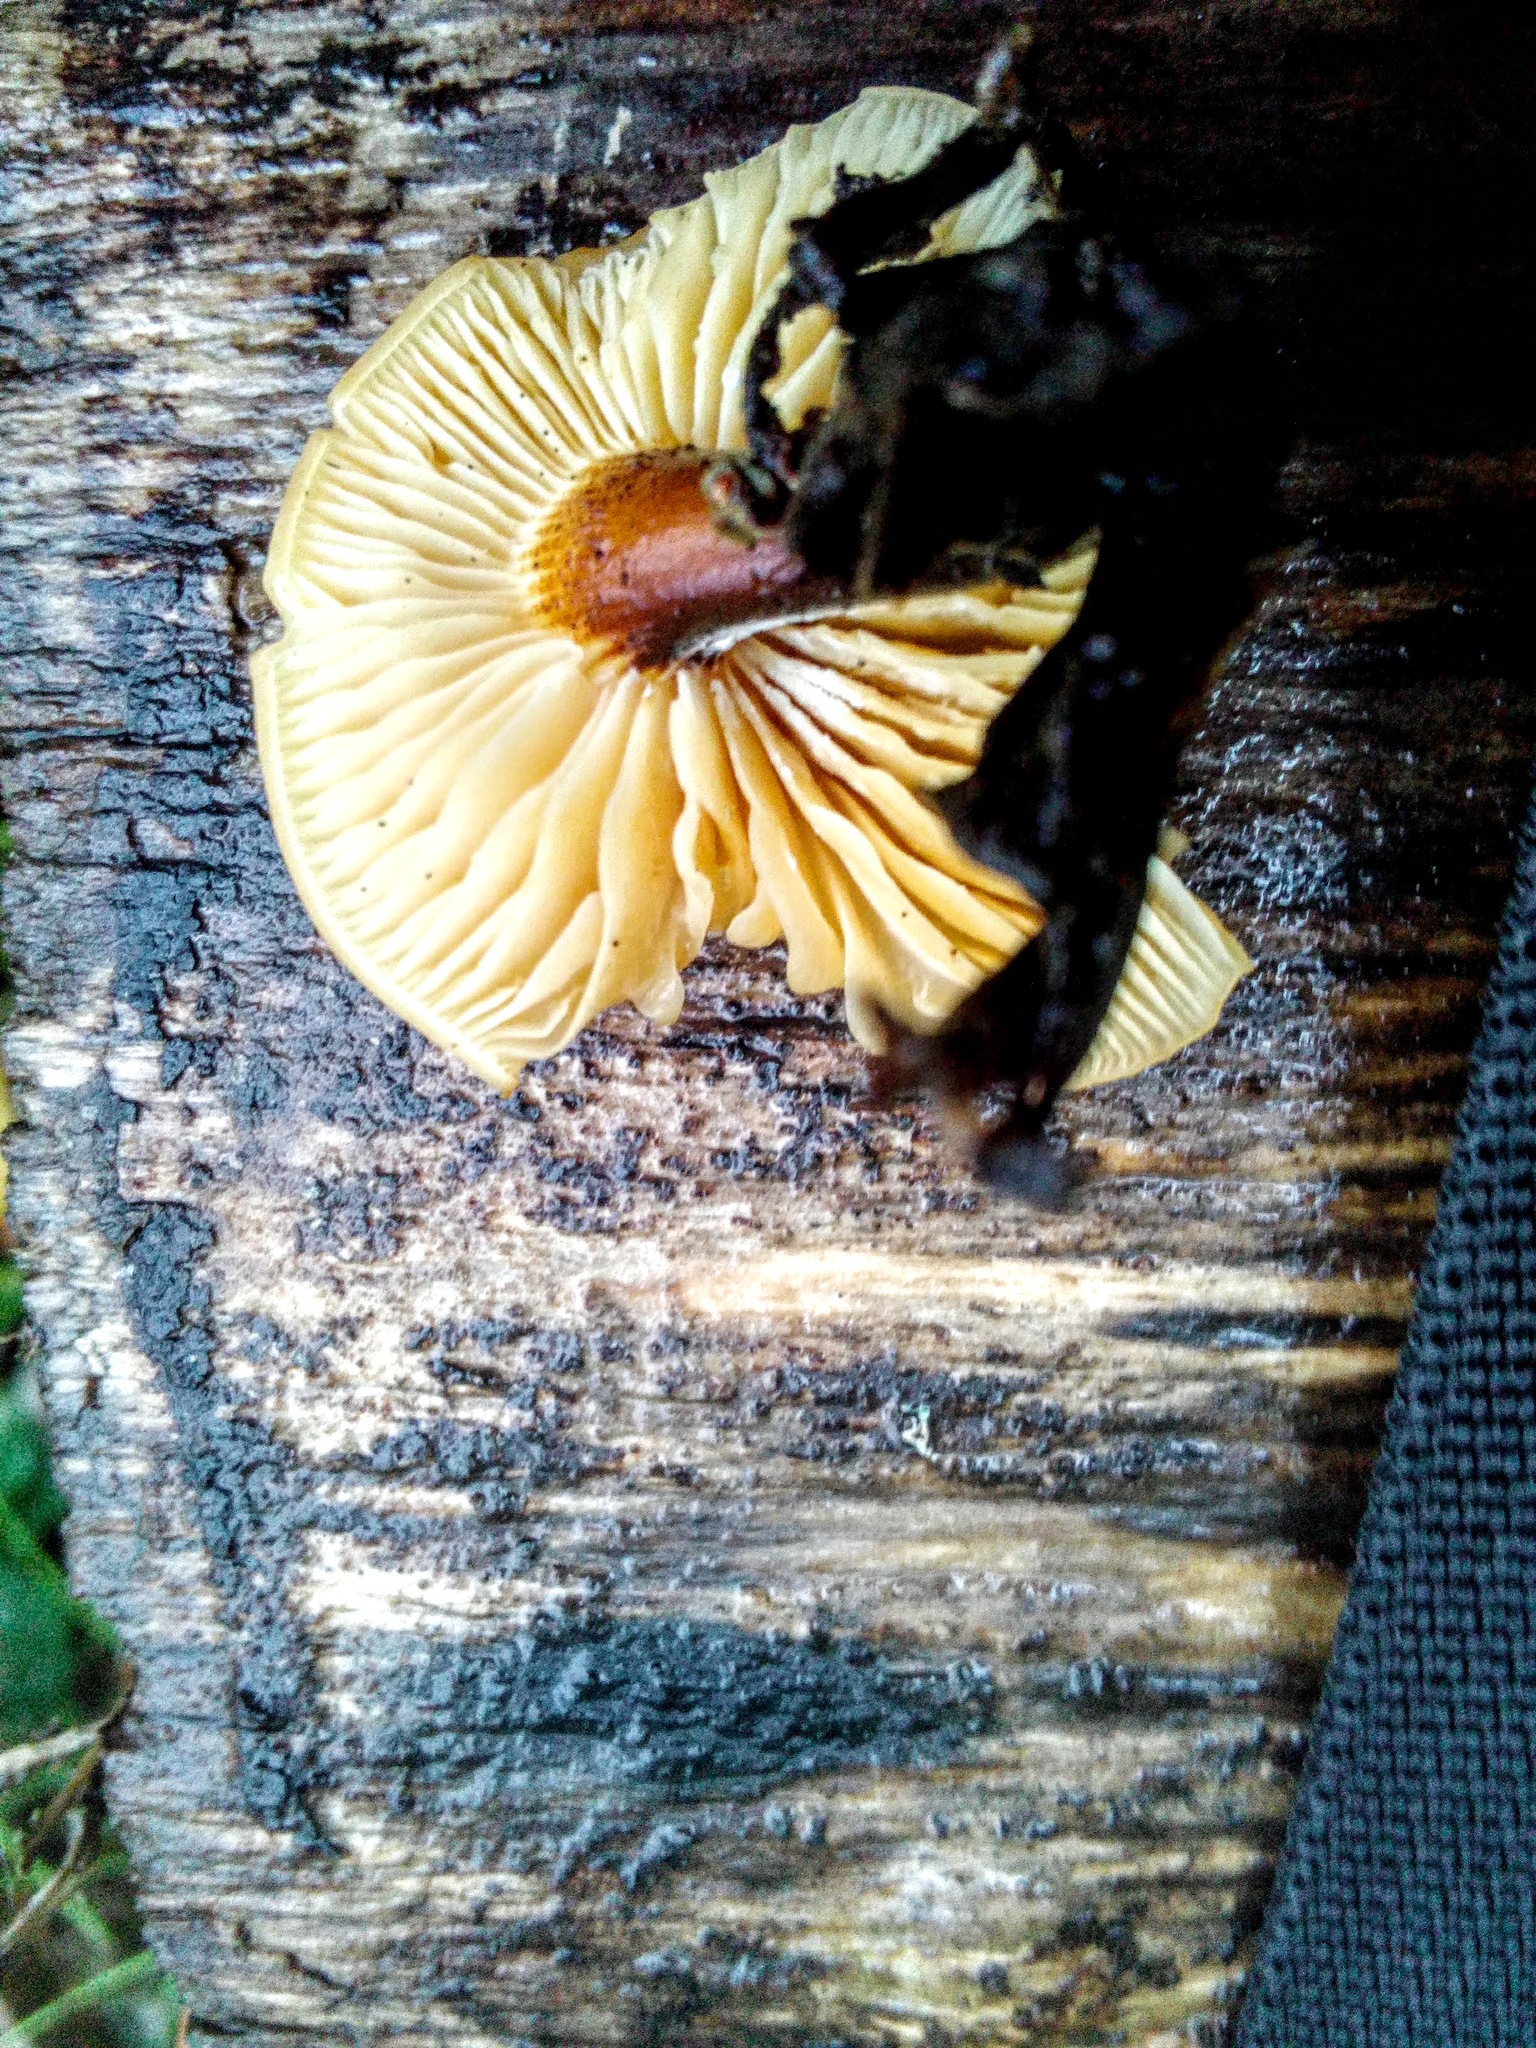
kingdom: Fungi
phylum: Basidiomycota
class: Agaricomycetes
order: Agaricales
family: Physalacriaceae
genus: Flammulina
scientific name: Flammulina velutipes
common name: Velvet shank
